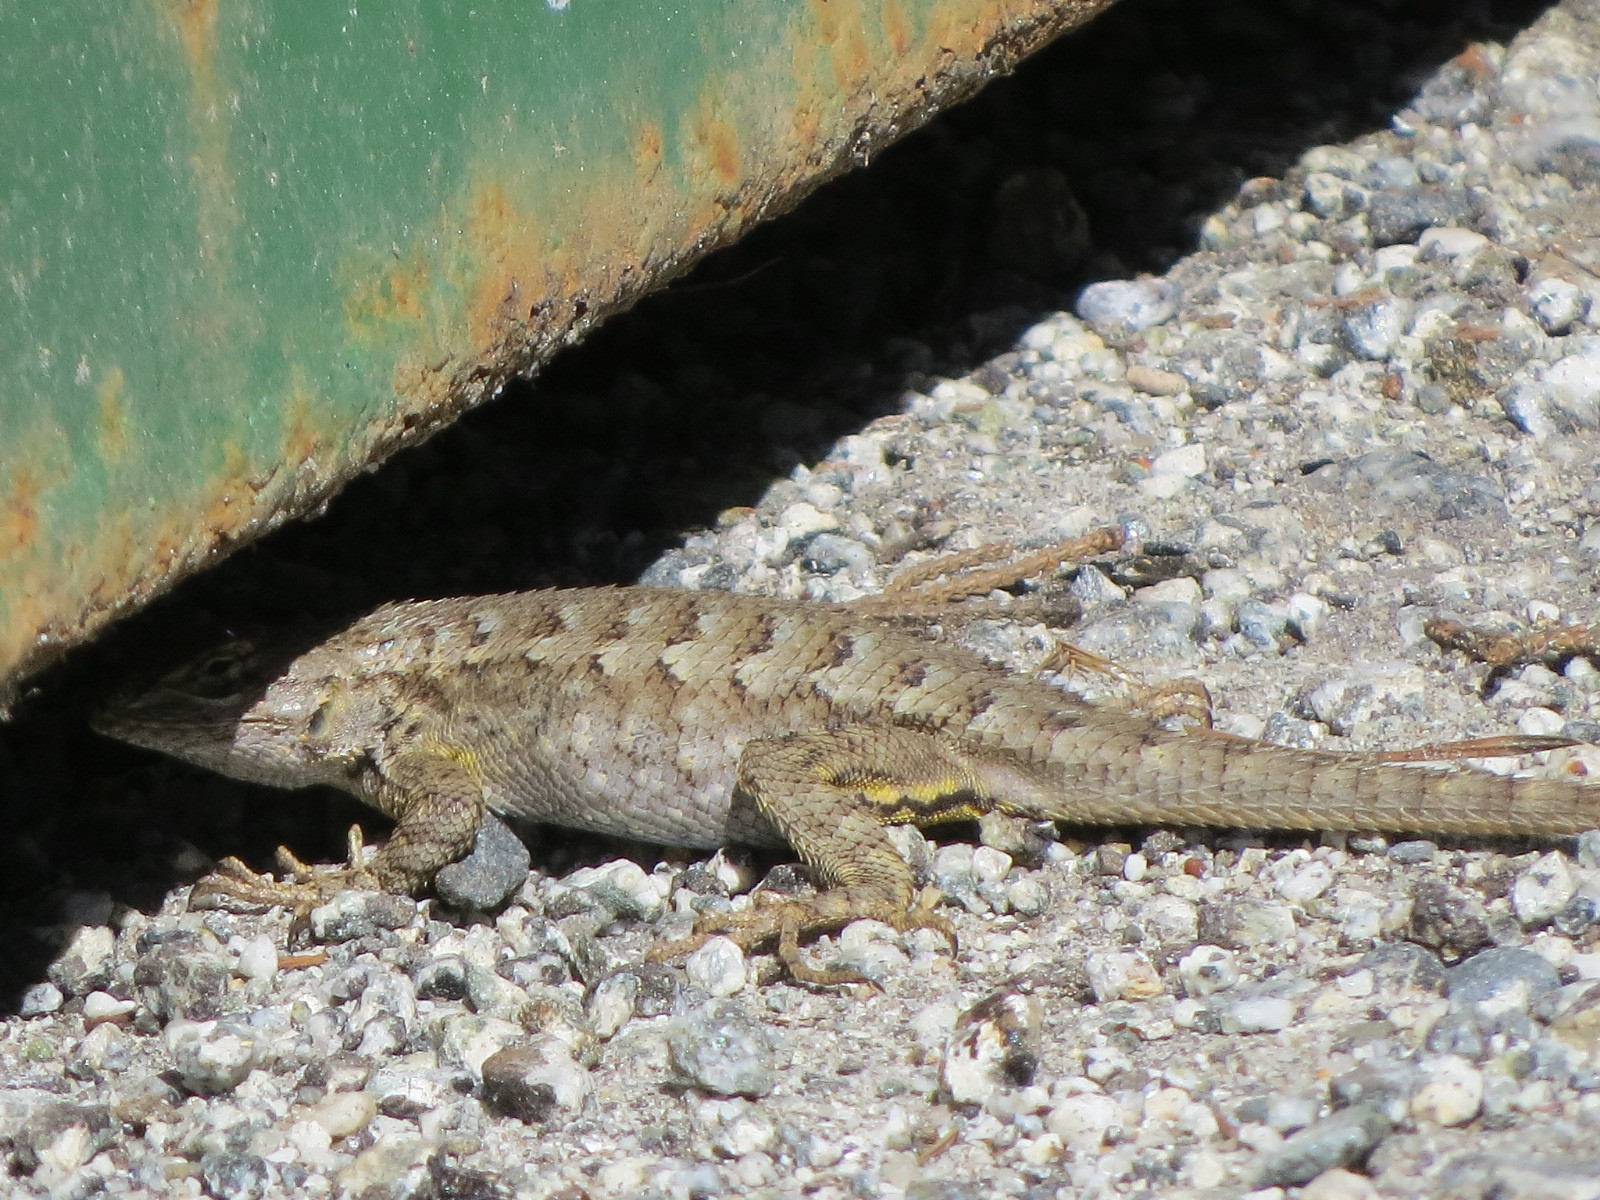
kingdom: Animalia
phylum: Chordata
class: Squamata
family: Phrynosomatidae
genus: Sceloporus
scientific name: Sceloporus occidentalis
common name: Western fence lizard
